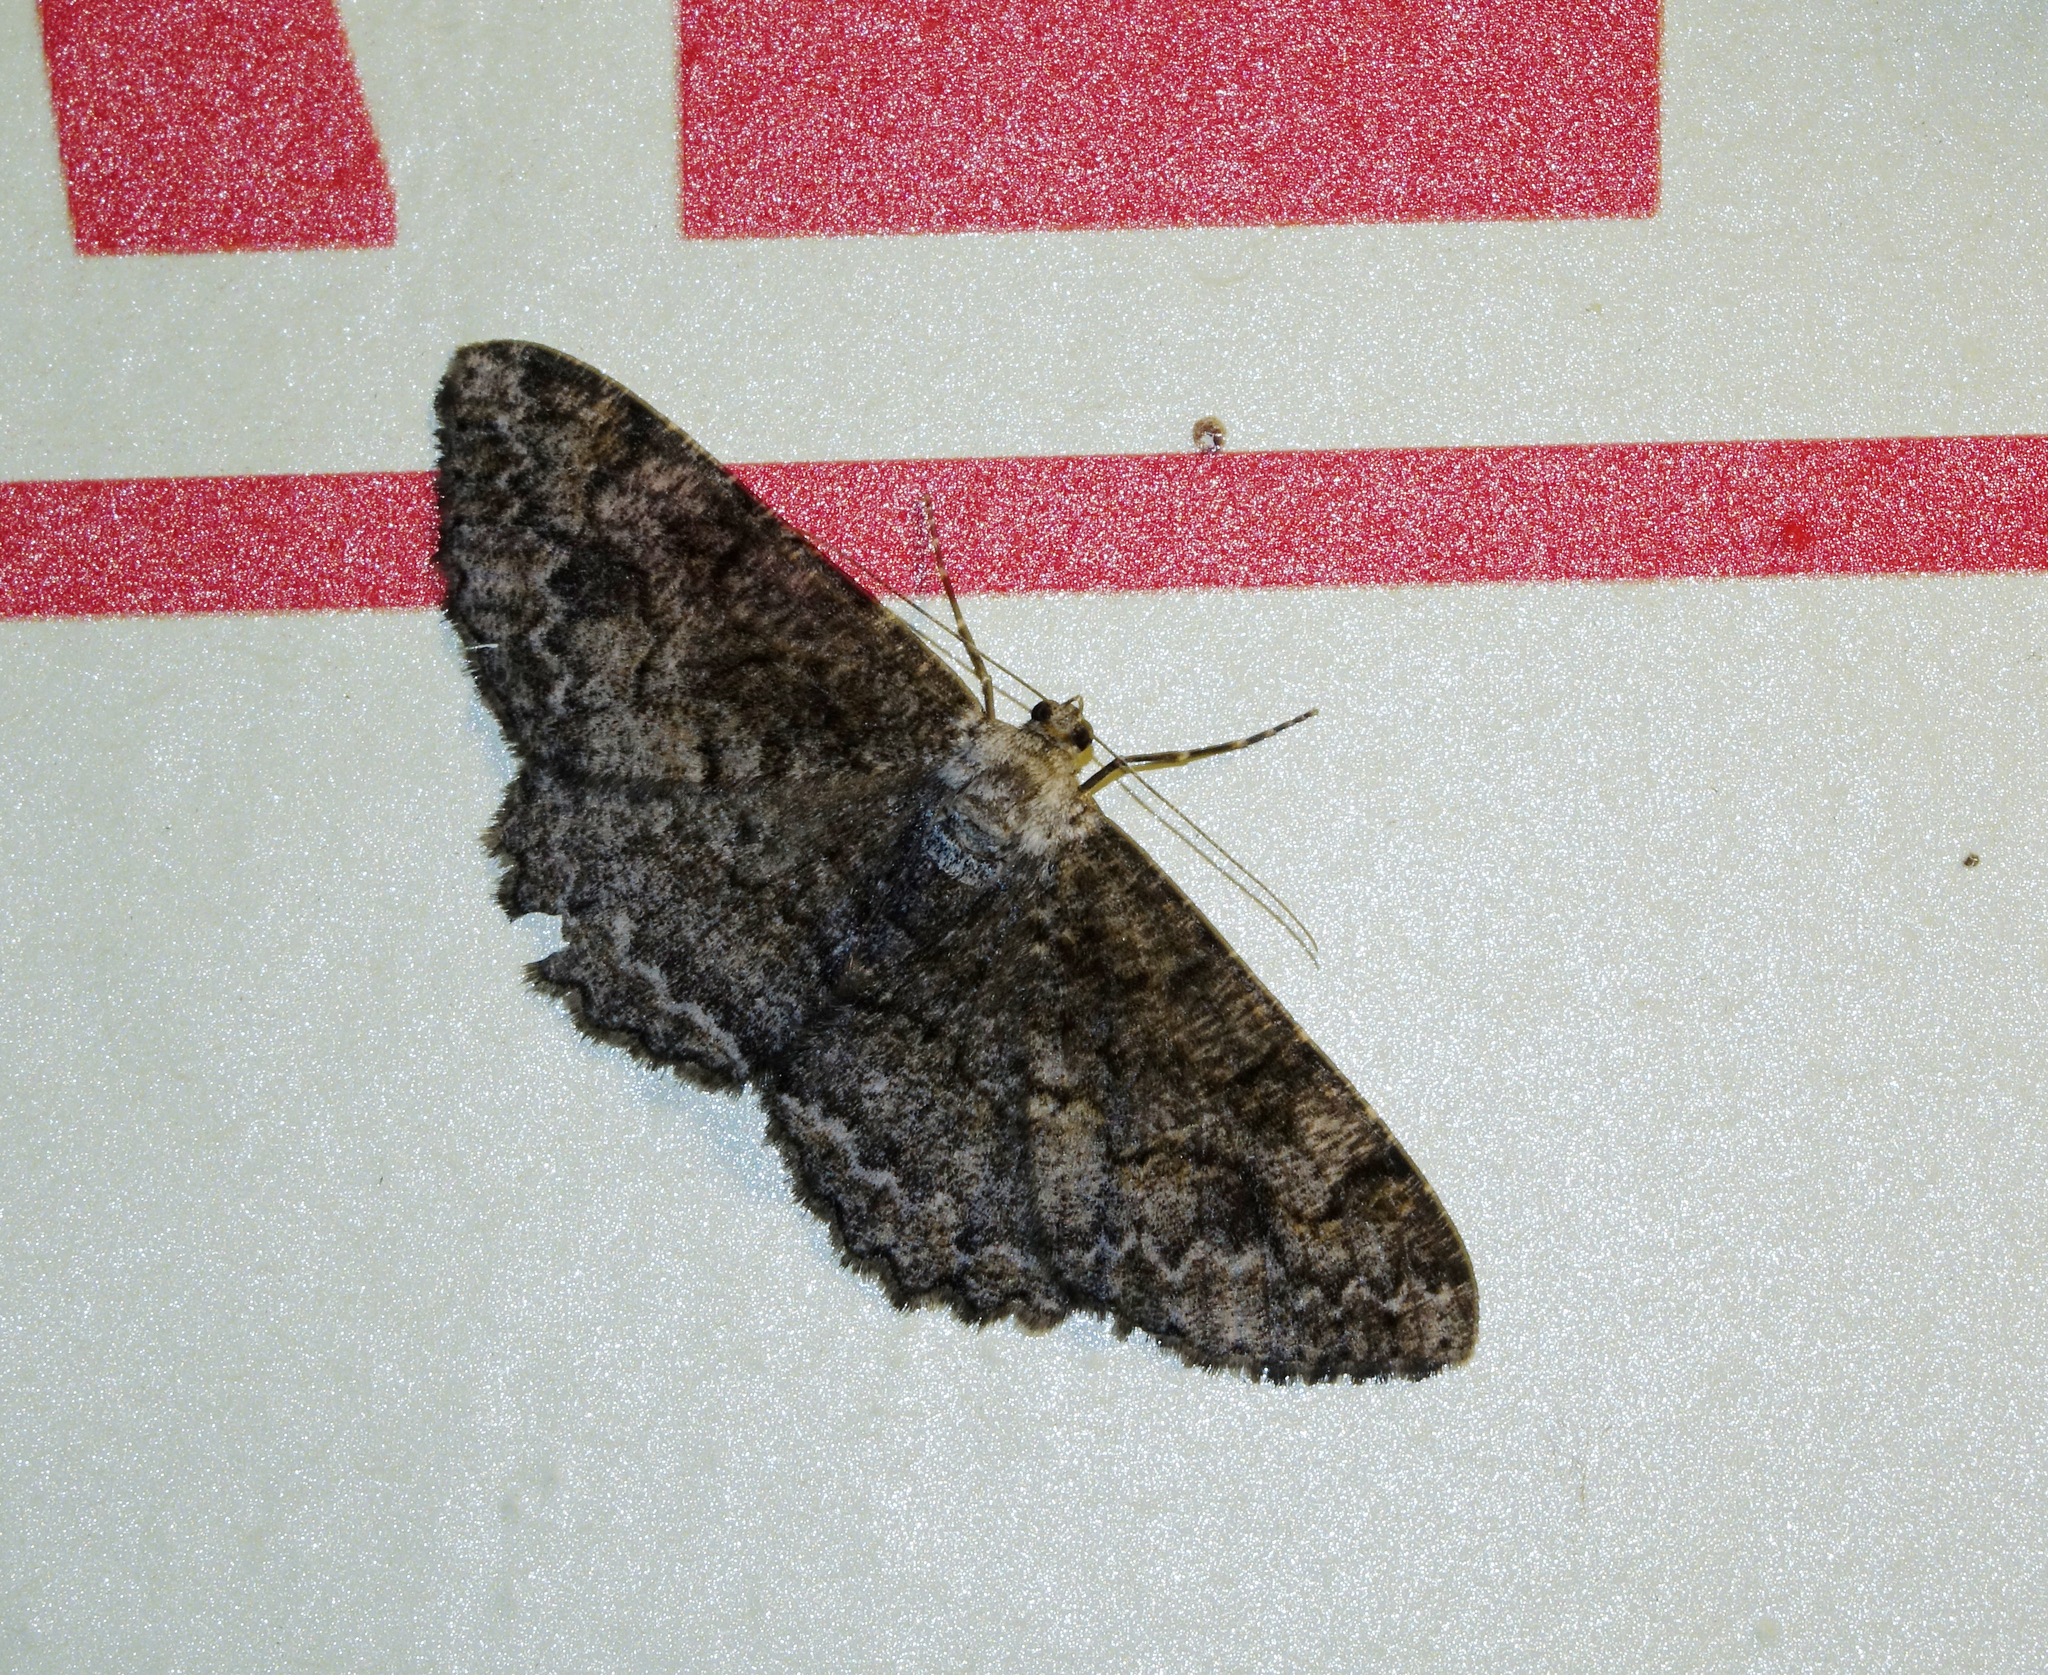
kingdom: Animalia
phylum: Arthropoda
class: Insecta
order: Lepidoptera
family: Geometridae
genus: Alcis
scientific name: Alcis repandata
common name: Mottled beauty
